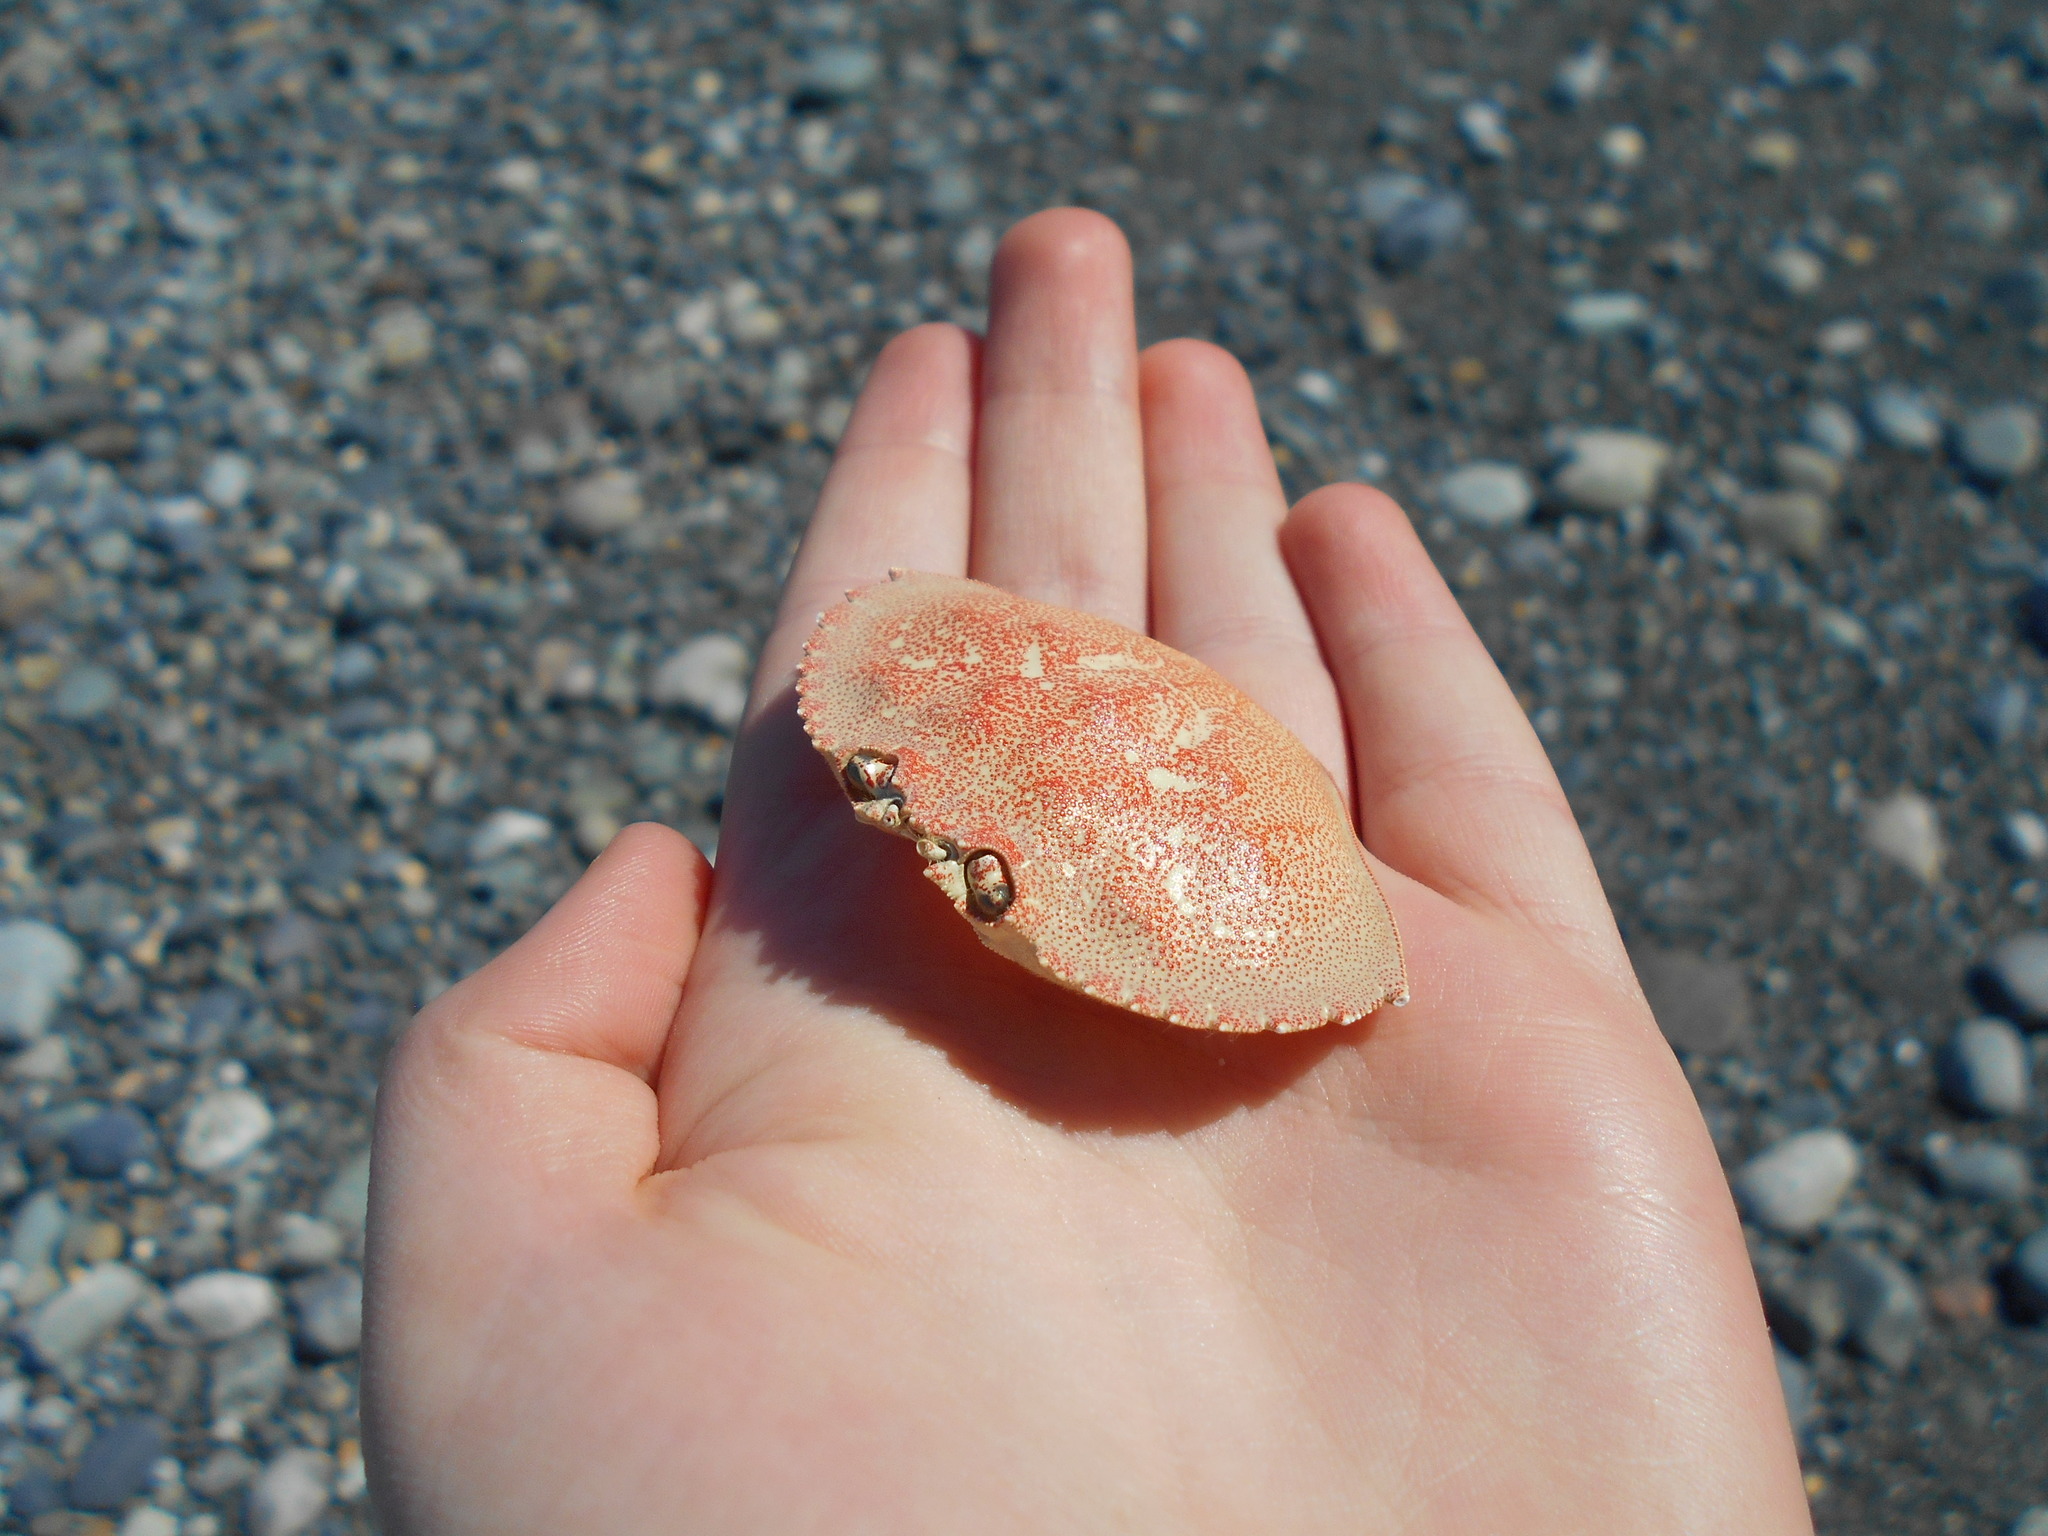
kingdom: Animalia
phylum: Arthropoda
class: Malacostraca
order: Decapoda
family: Cancridae
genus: Metacarcinus
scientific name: Metacarcinus magister
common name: Californian crab
